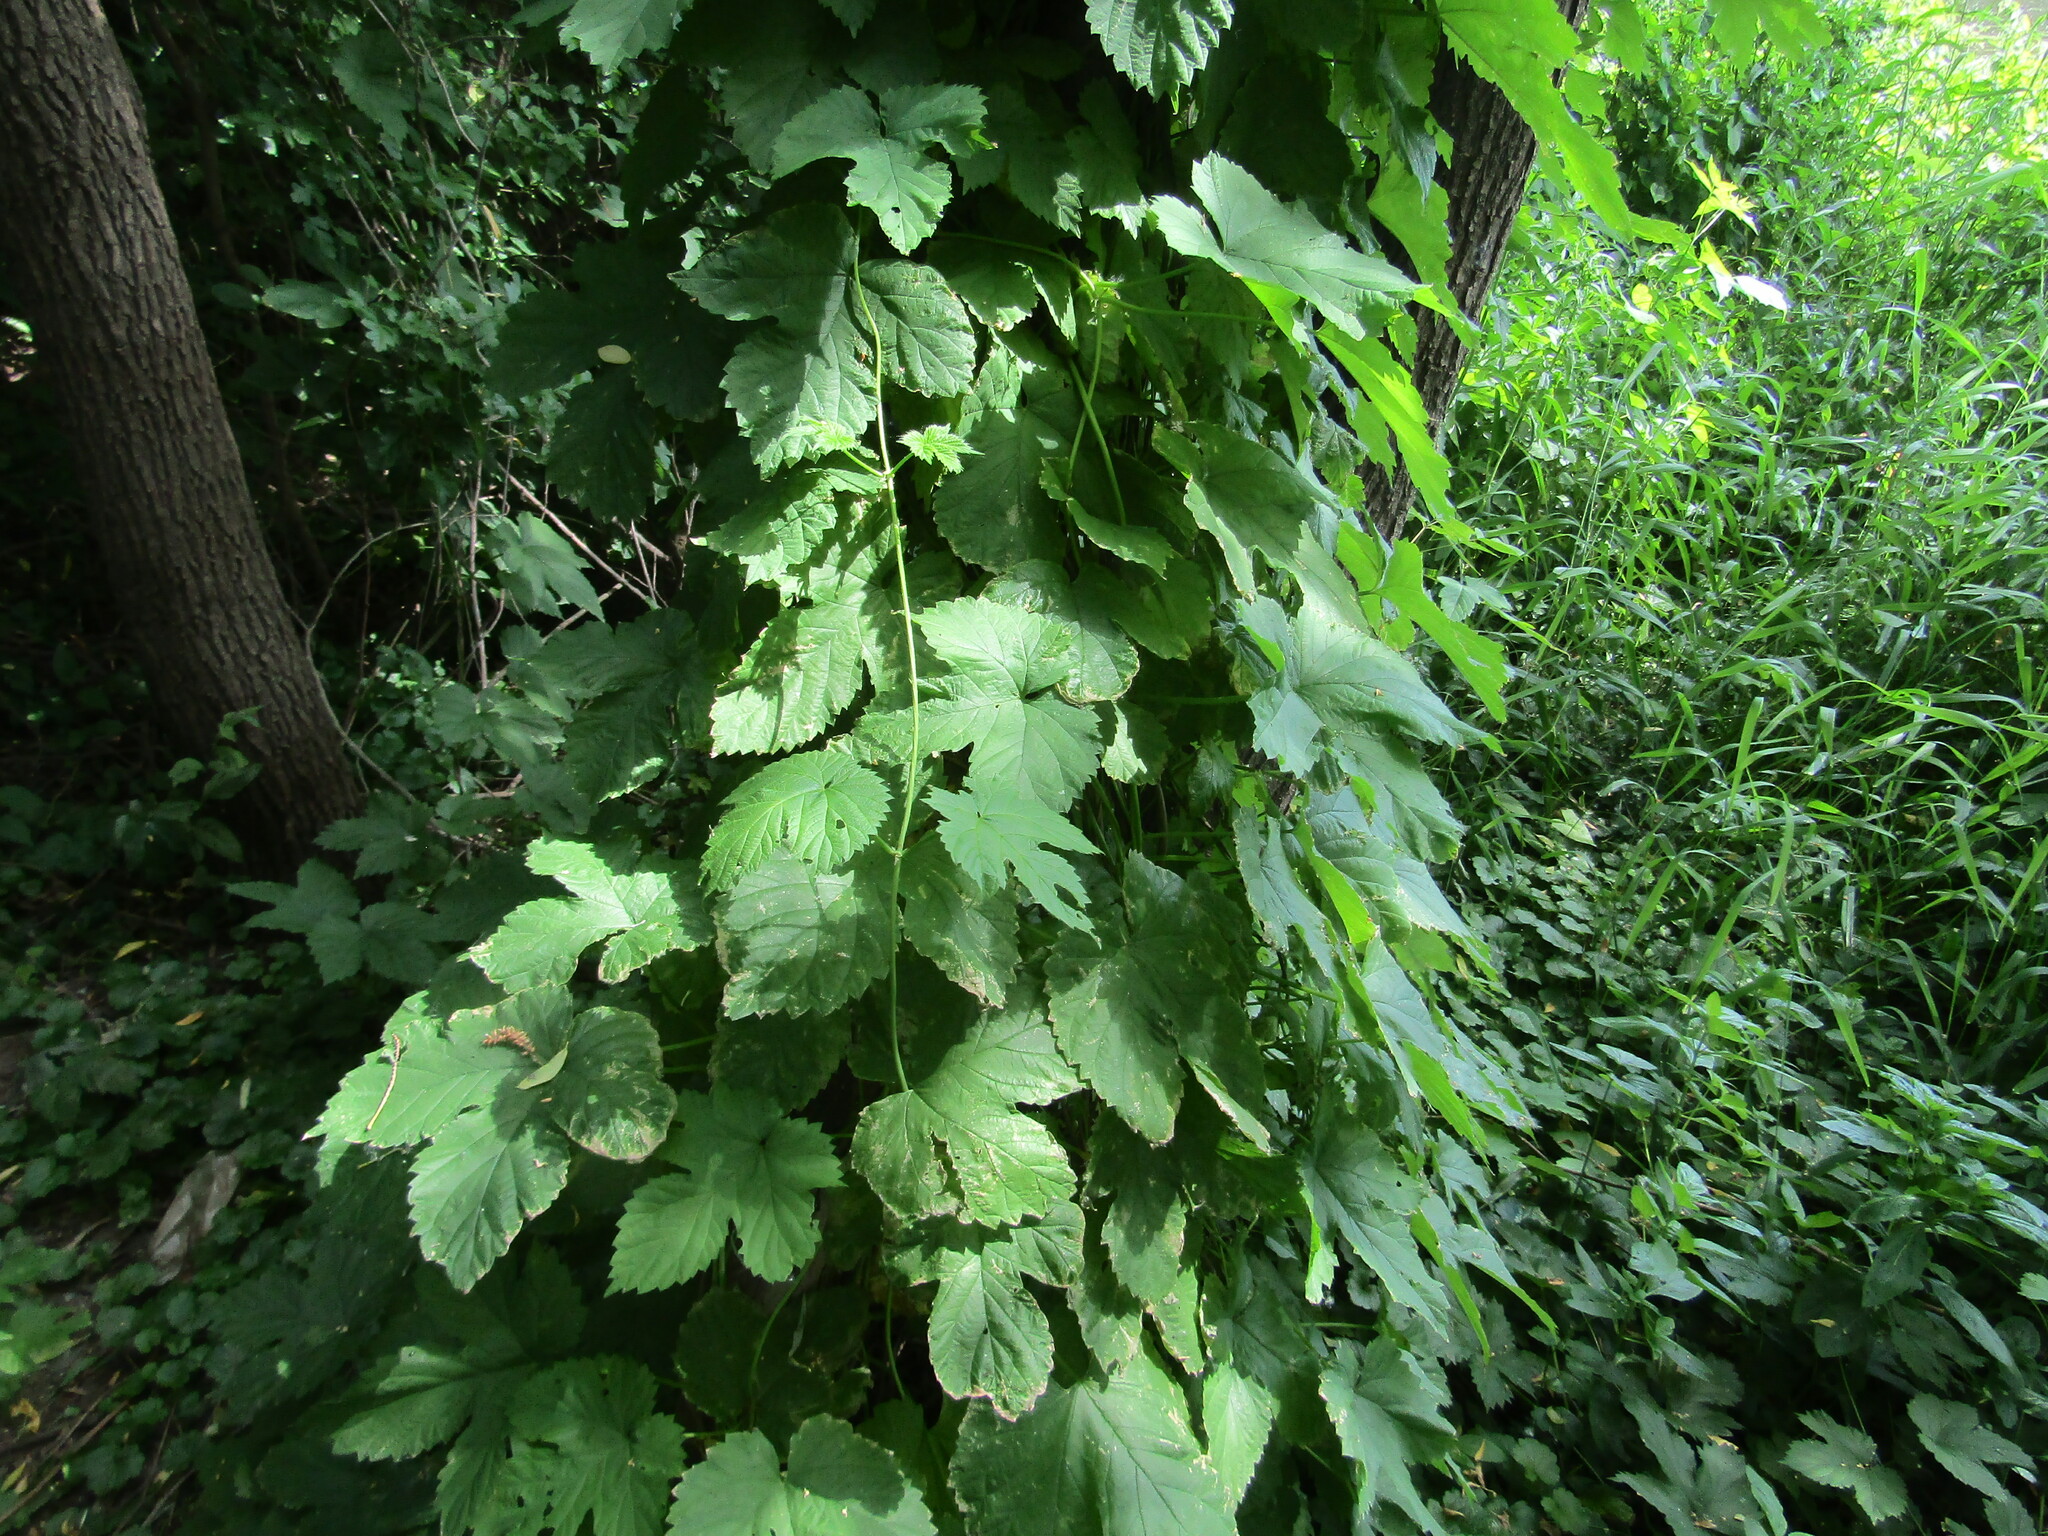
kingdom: Plantae
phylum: Tracheophyta
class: Magnoliopsida
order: Rosales
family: Cannabaceae
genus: Humulus
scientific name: Humulus lupulus
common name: Hop
